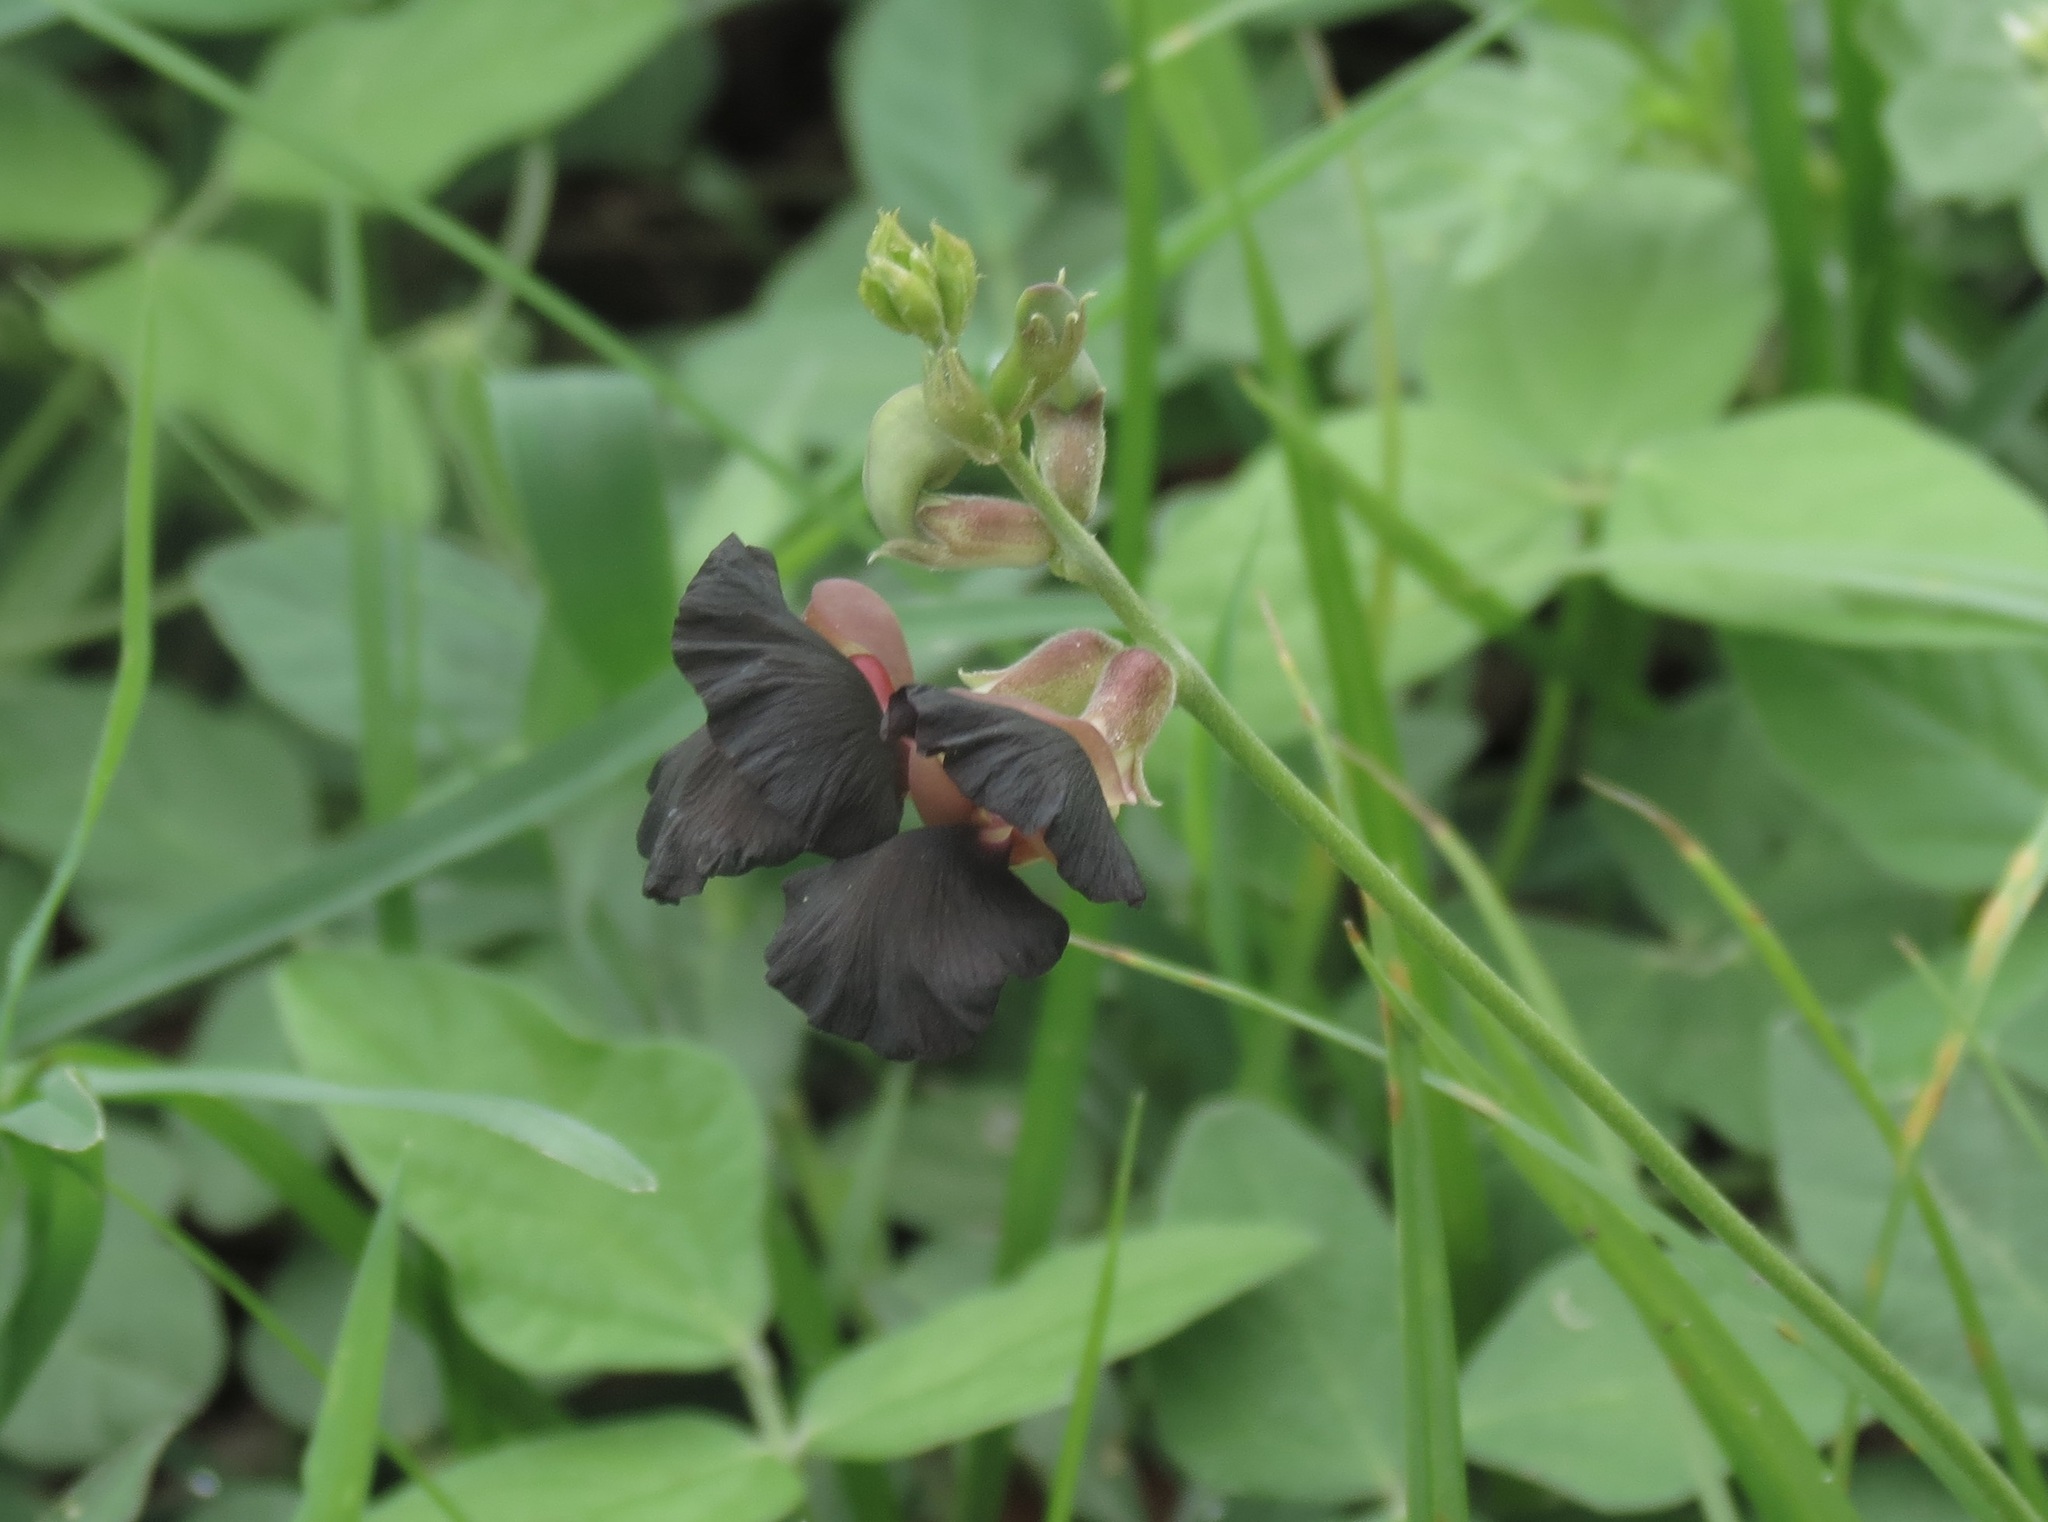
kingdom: Plantae
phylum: Tracheophyta
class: Magnoliopsida
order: Fabales
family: Fabaceae
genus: Macroptilium
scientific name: Macroptilium atropurpureum
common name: Purple bushbean
